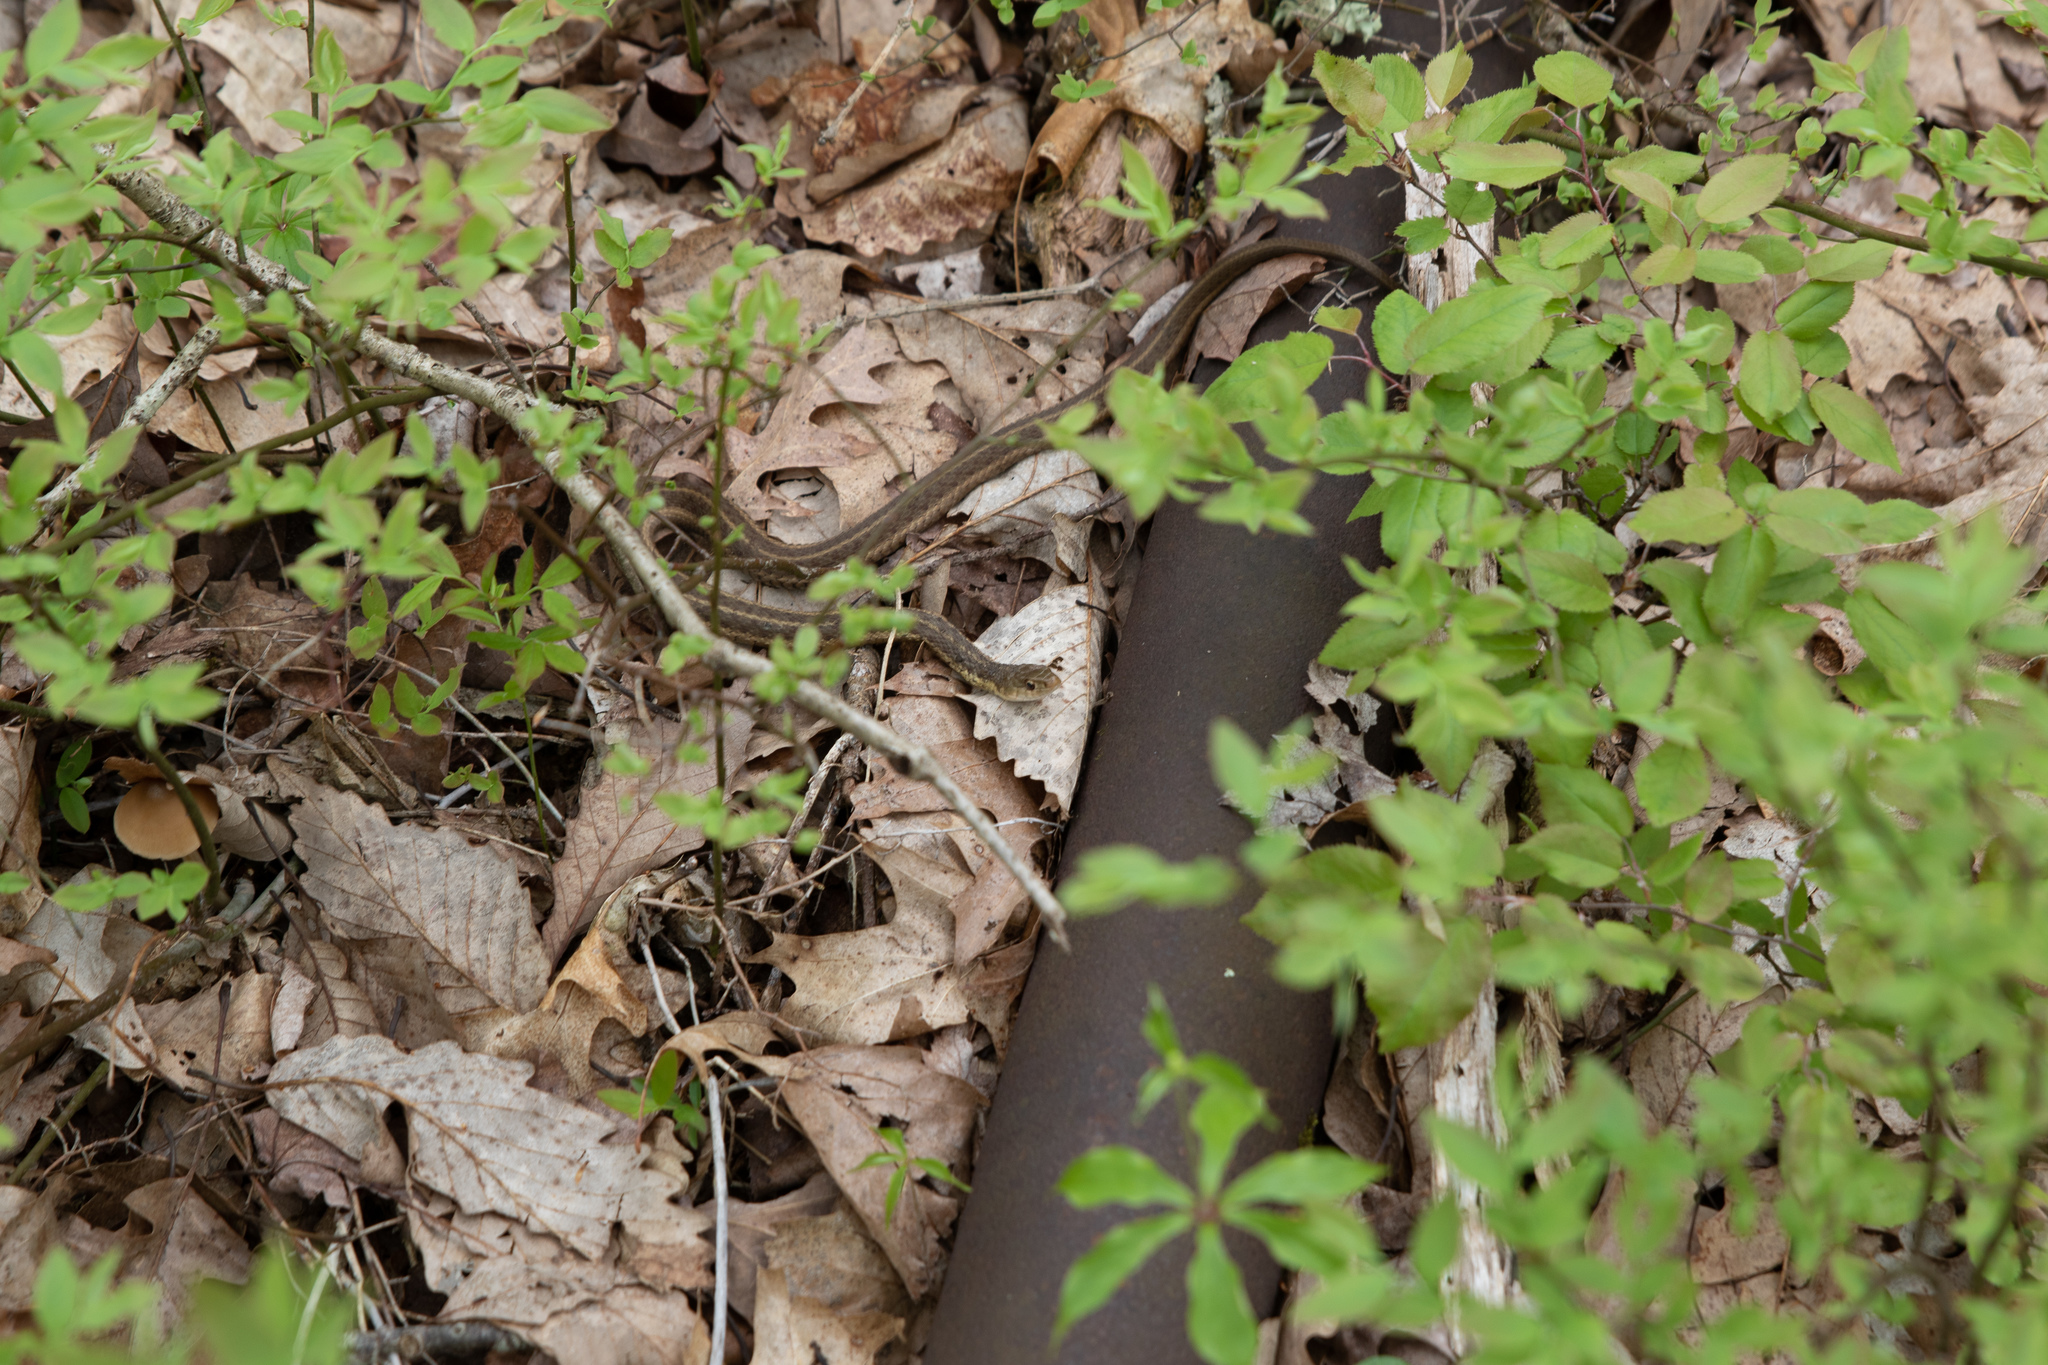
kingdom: Animalia
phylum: Chordata
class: Squamata
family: Colubridae
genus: Thamnophis
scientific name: Thamnophis sirtalis
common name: Common garter snake
